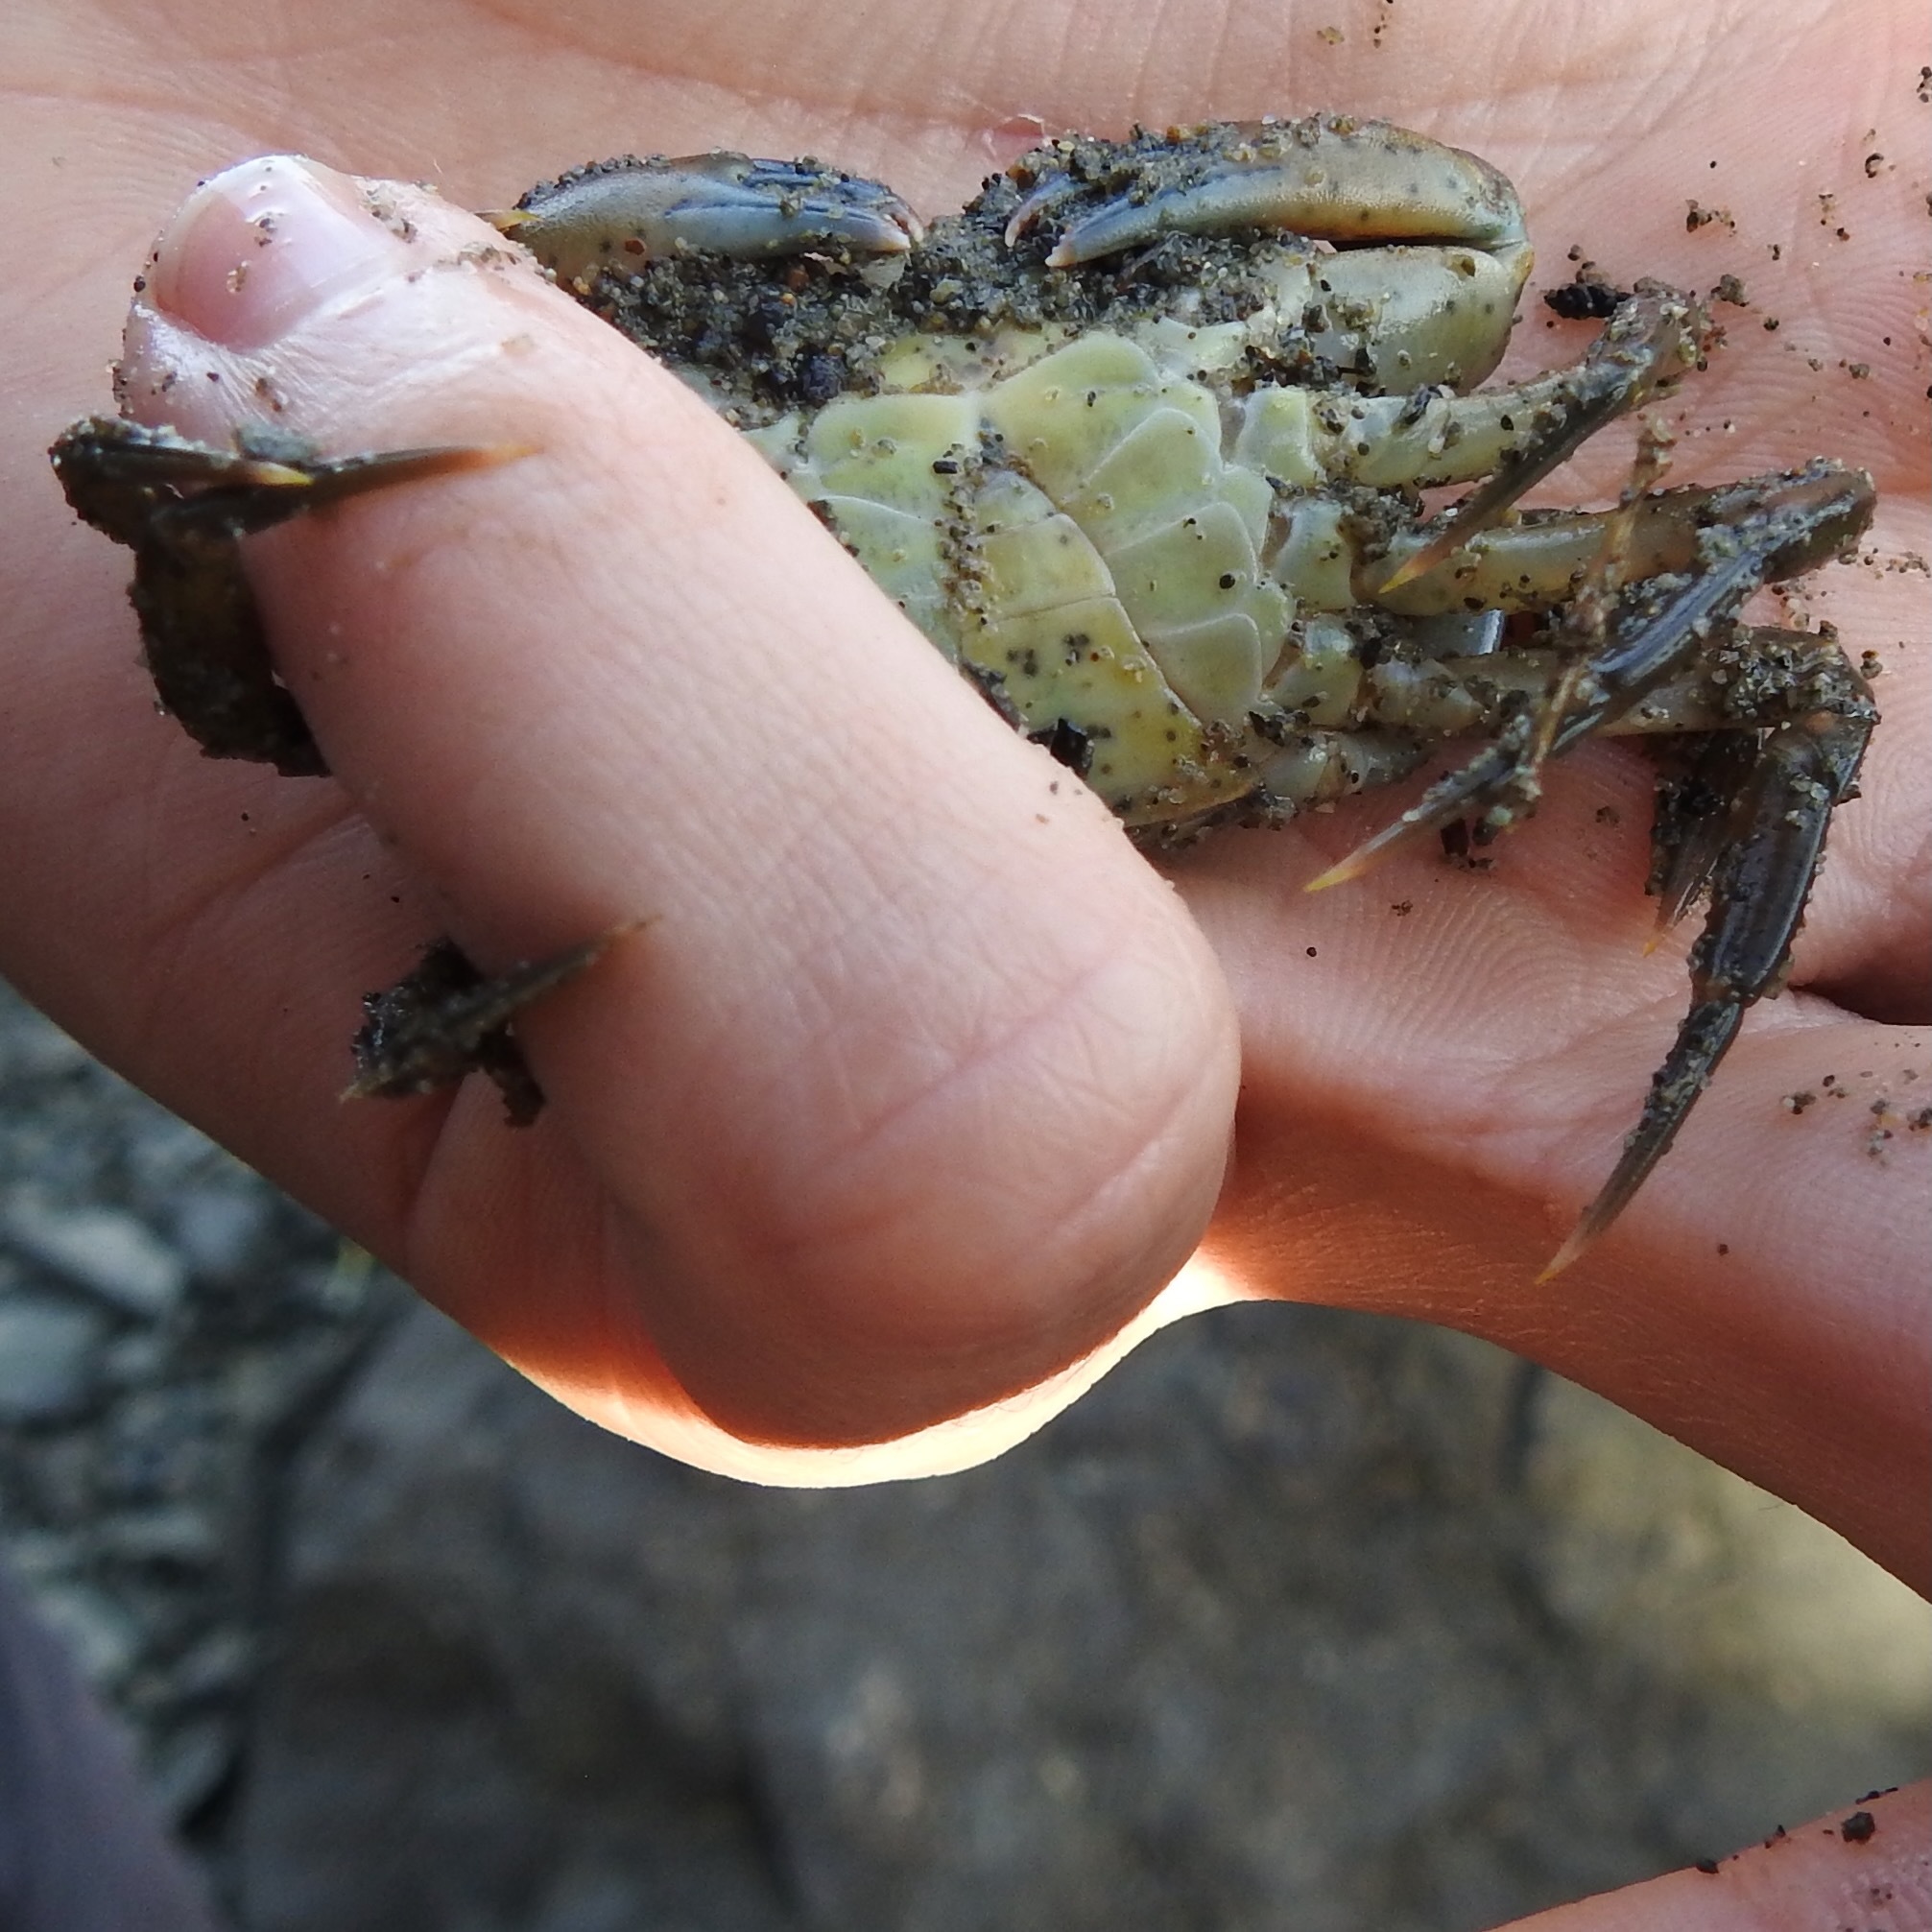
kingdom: Animalia
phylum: Arthropoda
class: Malacostraca
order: Decapoda
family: Carcinidae
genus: Carcinus
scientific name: Carcinus maenas
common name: European green crab
